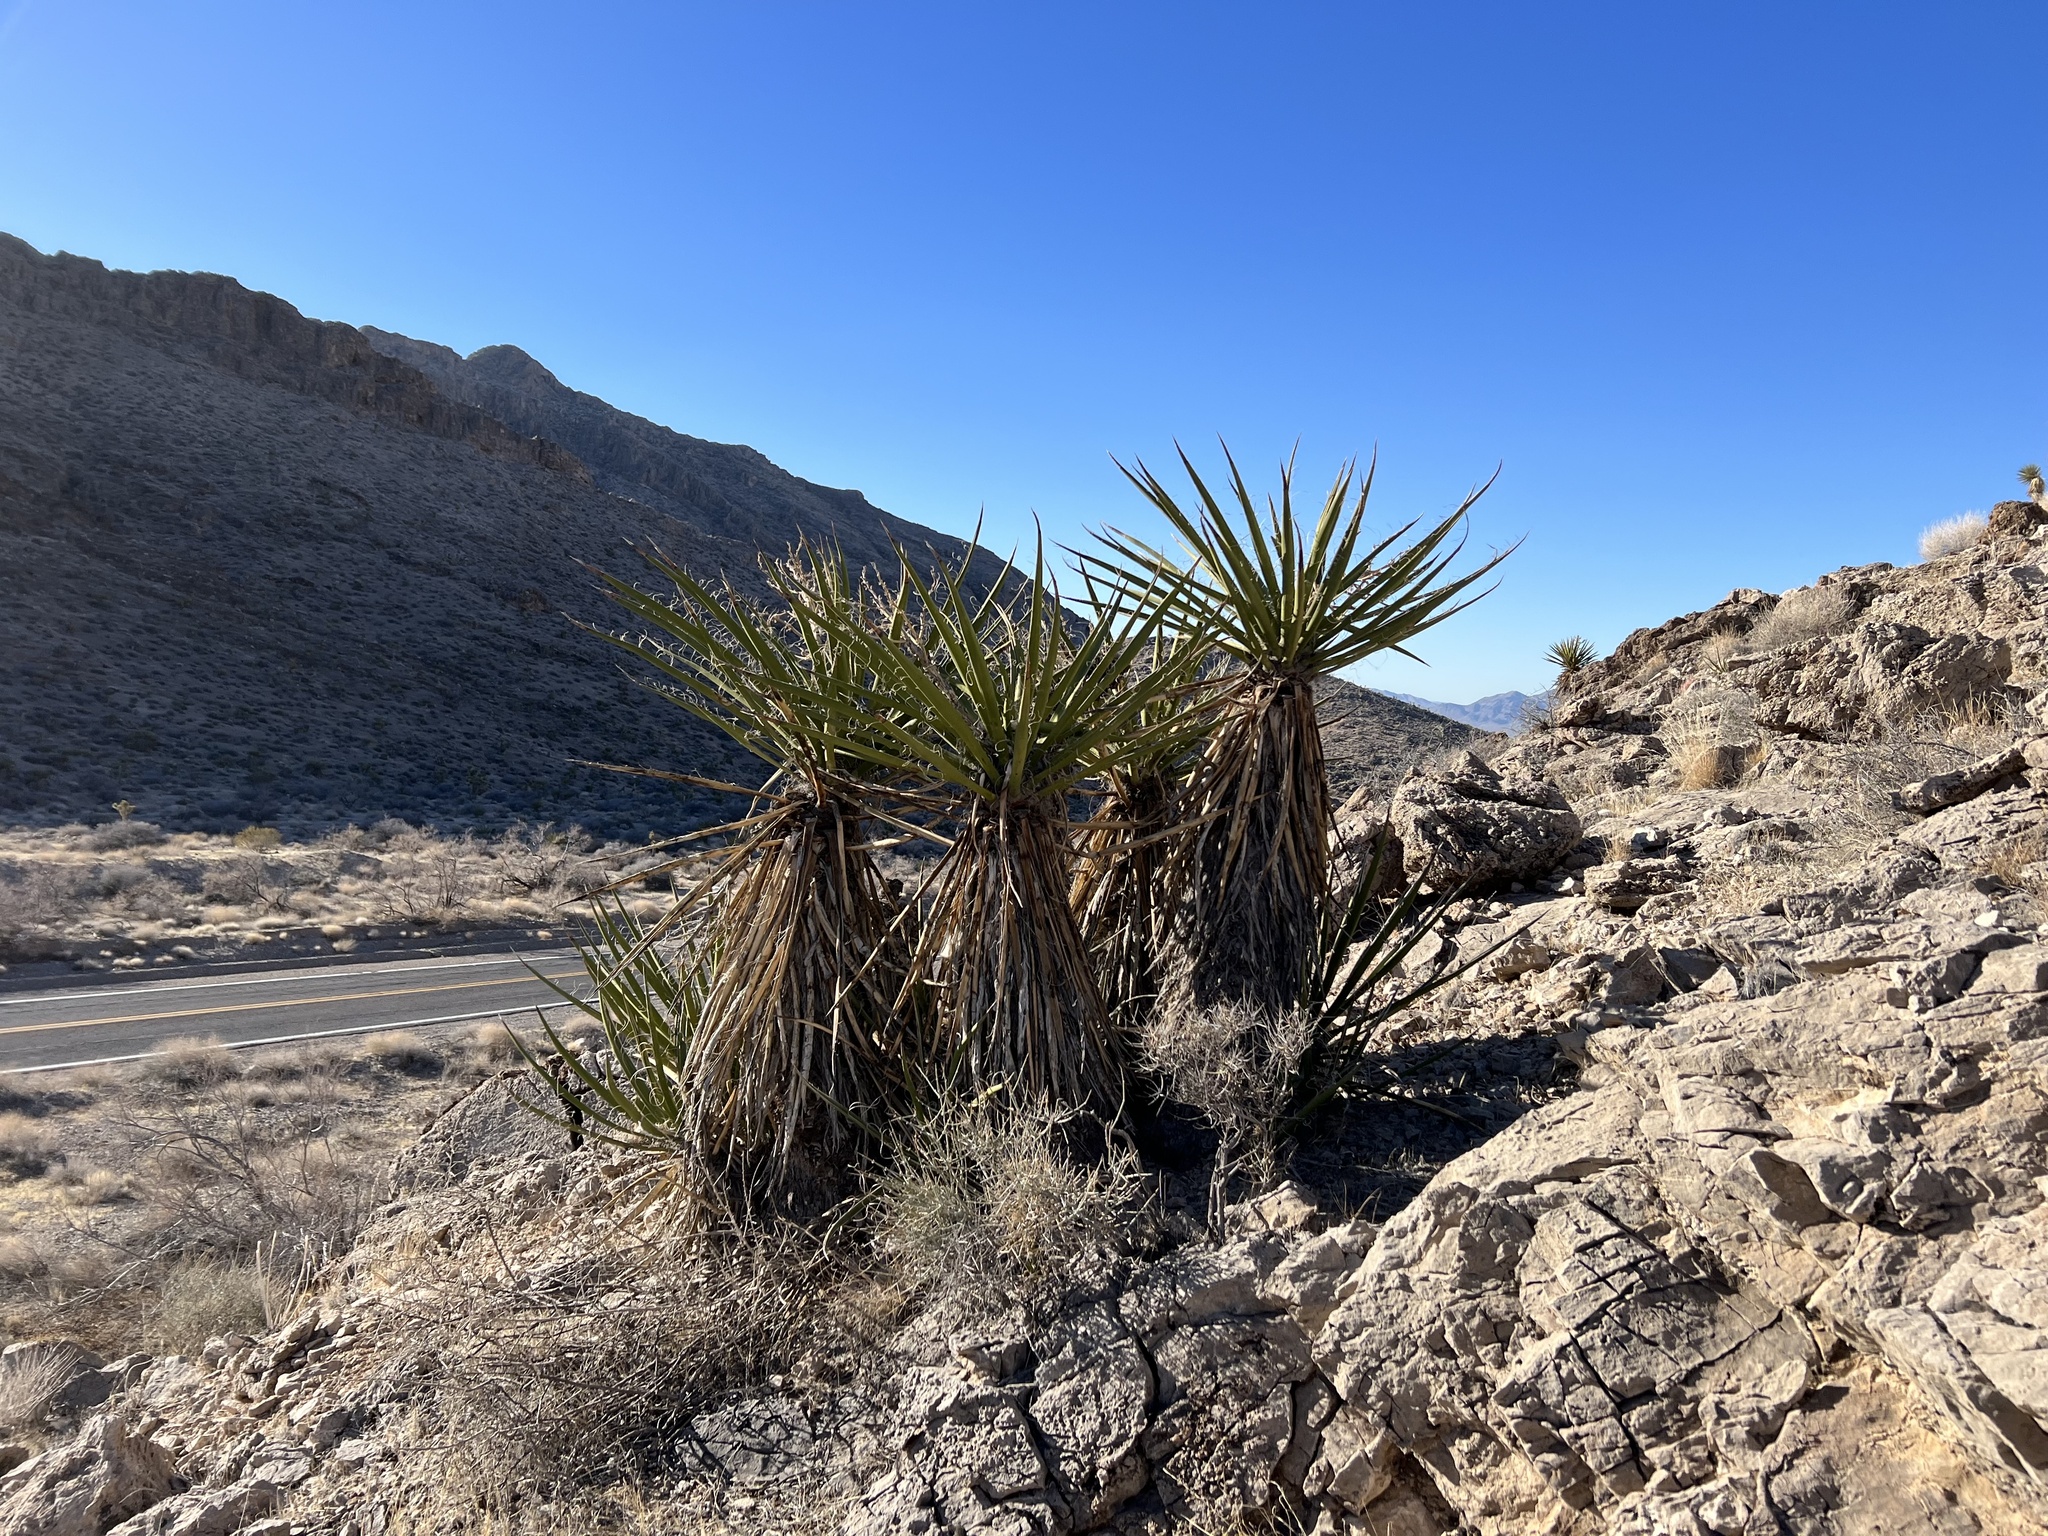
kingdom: Plantae
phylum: Tracheophyta
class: Liliopsida
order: Asparagales
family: Asparagaceae
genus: Yucca
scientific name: Yucca schidigera
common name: Mojave yucca
